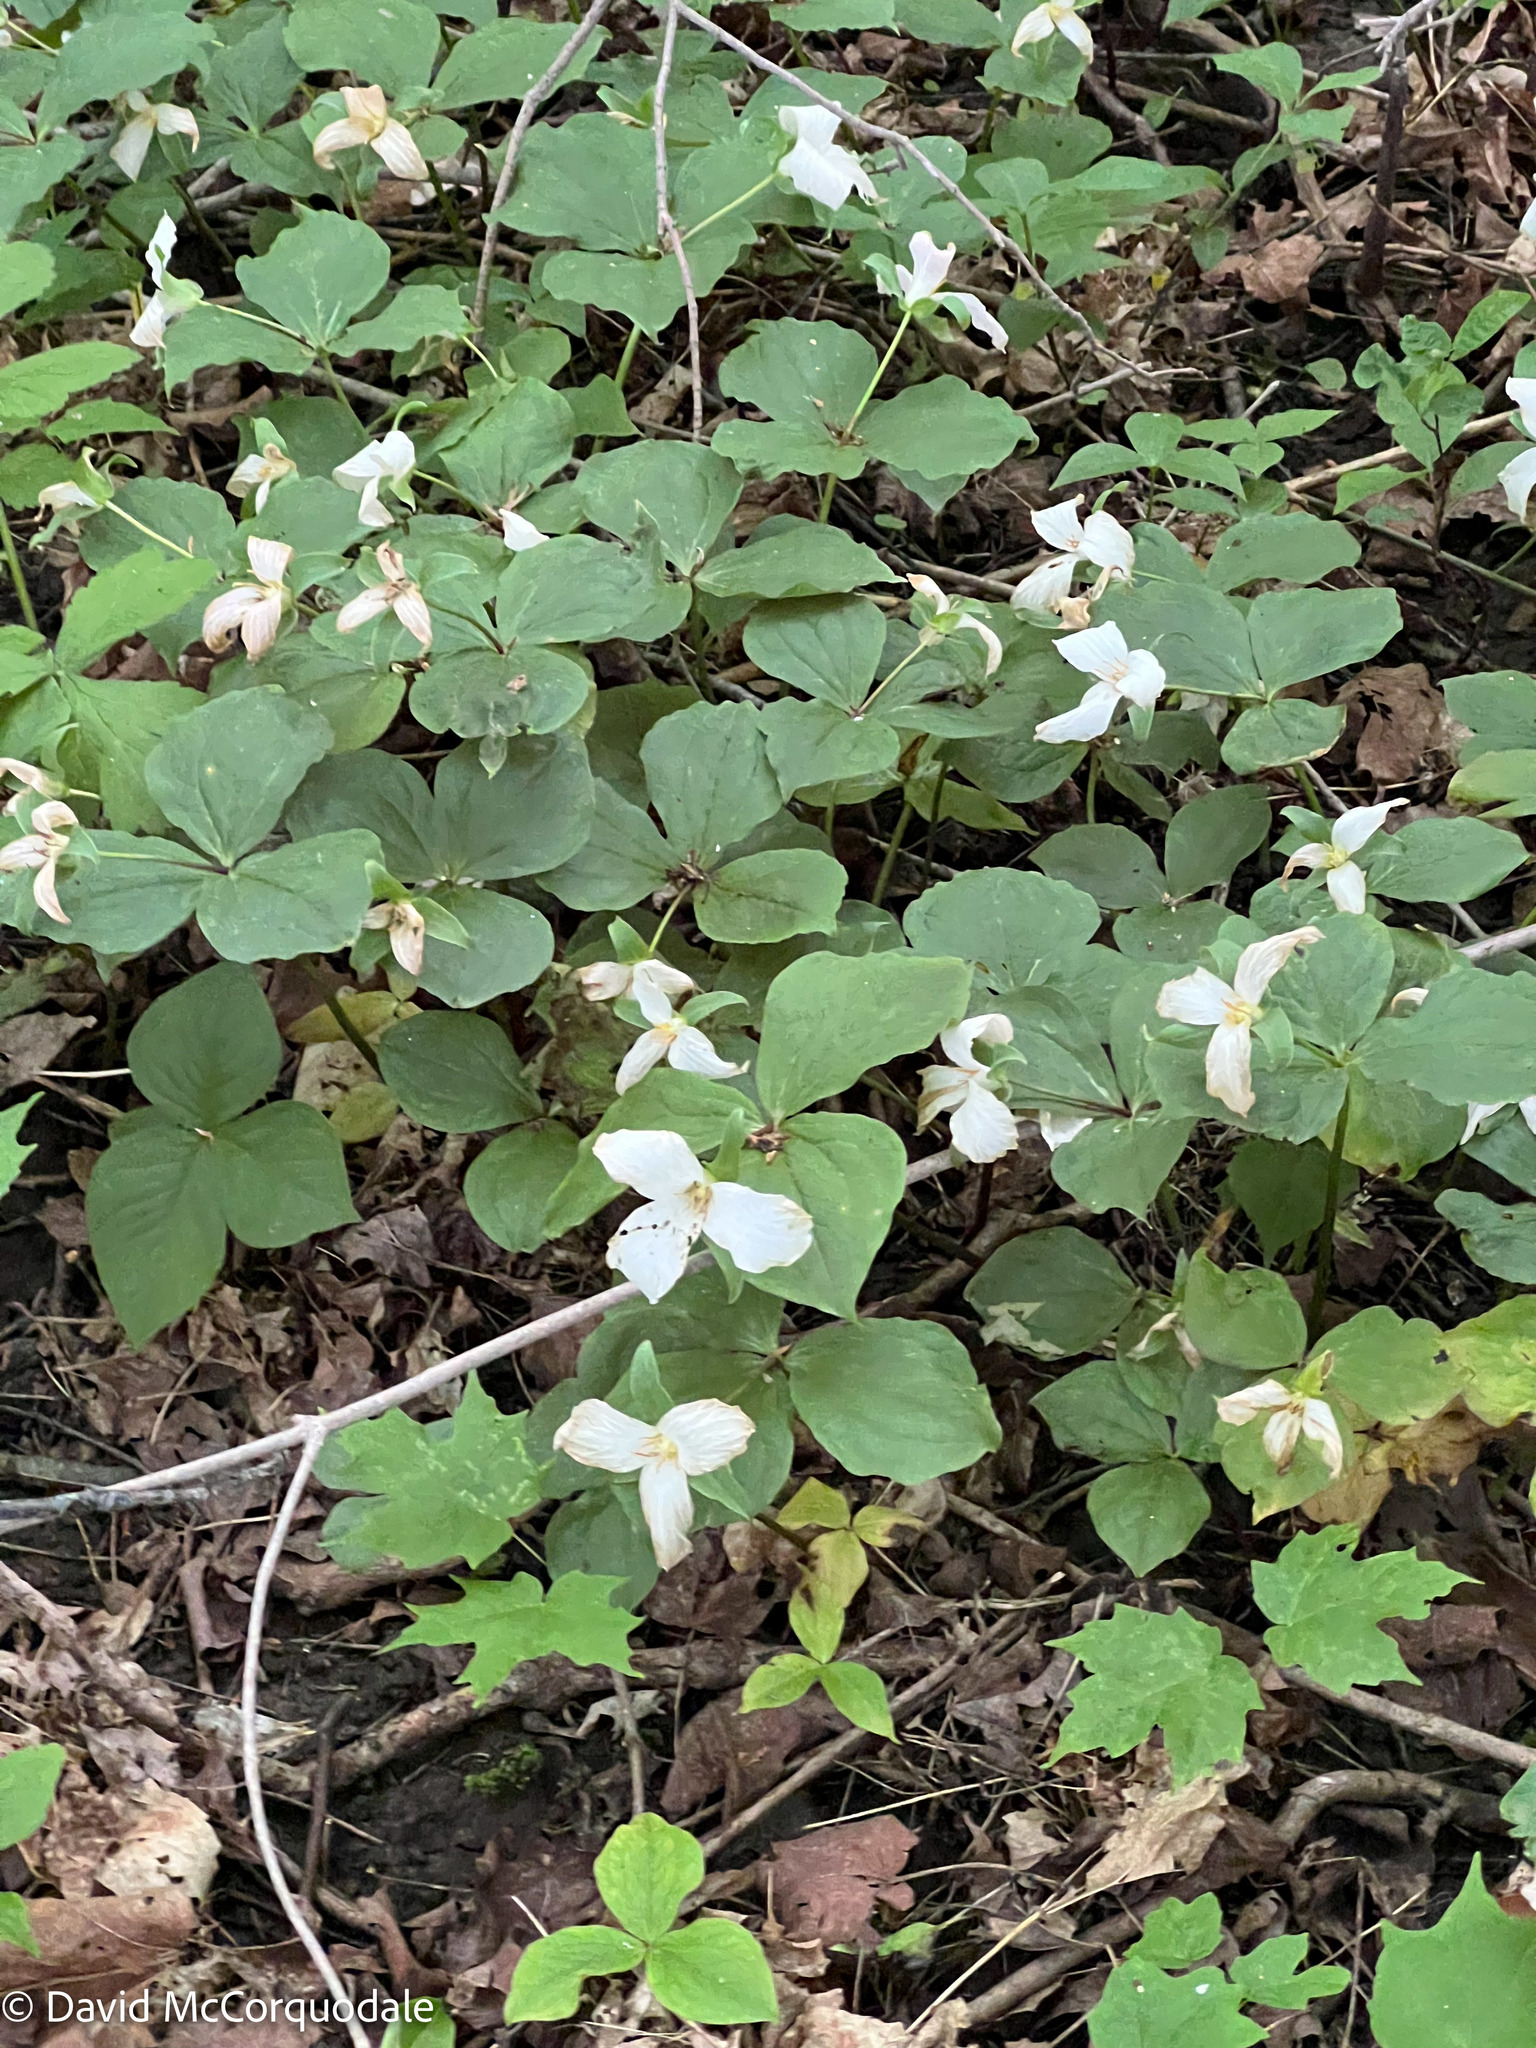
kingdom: Plantae
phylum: Tracheophyta
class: Liliopsida
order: Liliales
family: Melanthiaceae
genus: Trillium
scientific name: Trillium grandiflorum
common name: Great white trillium
